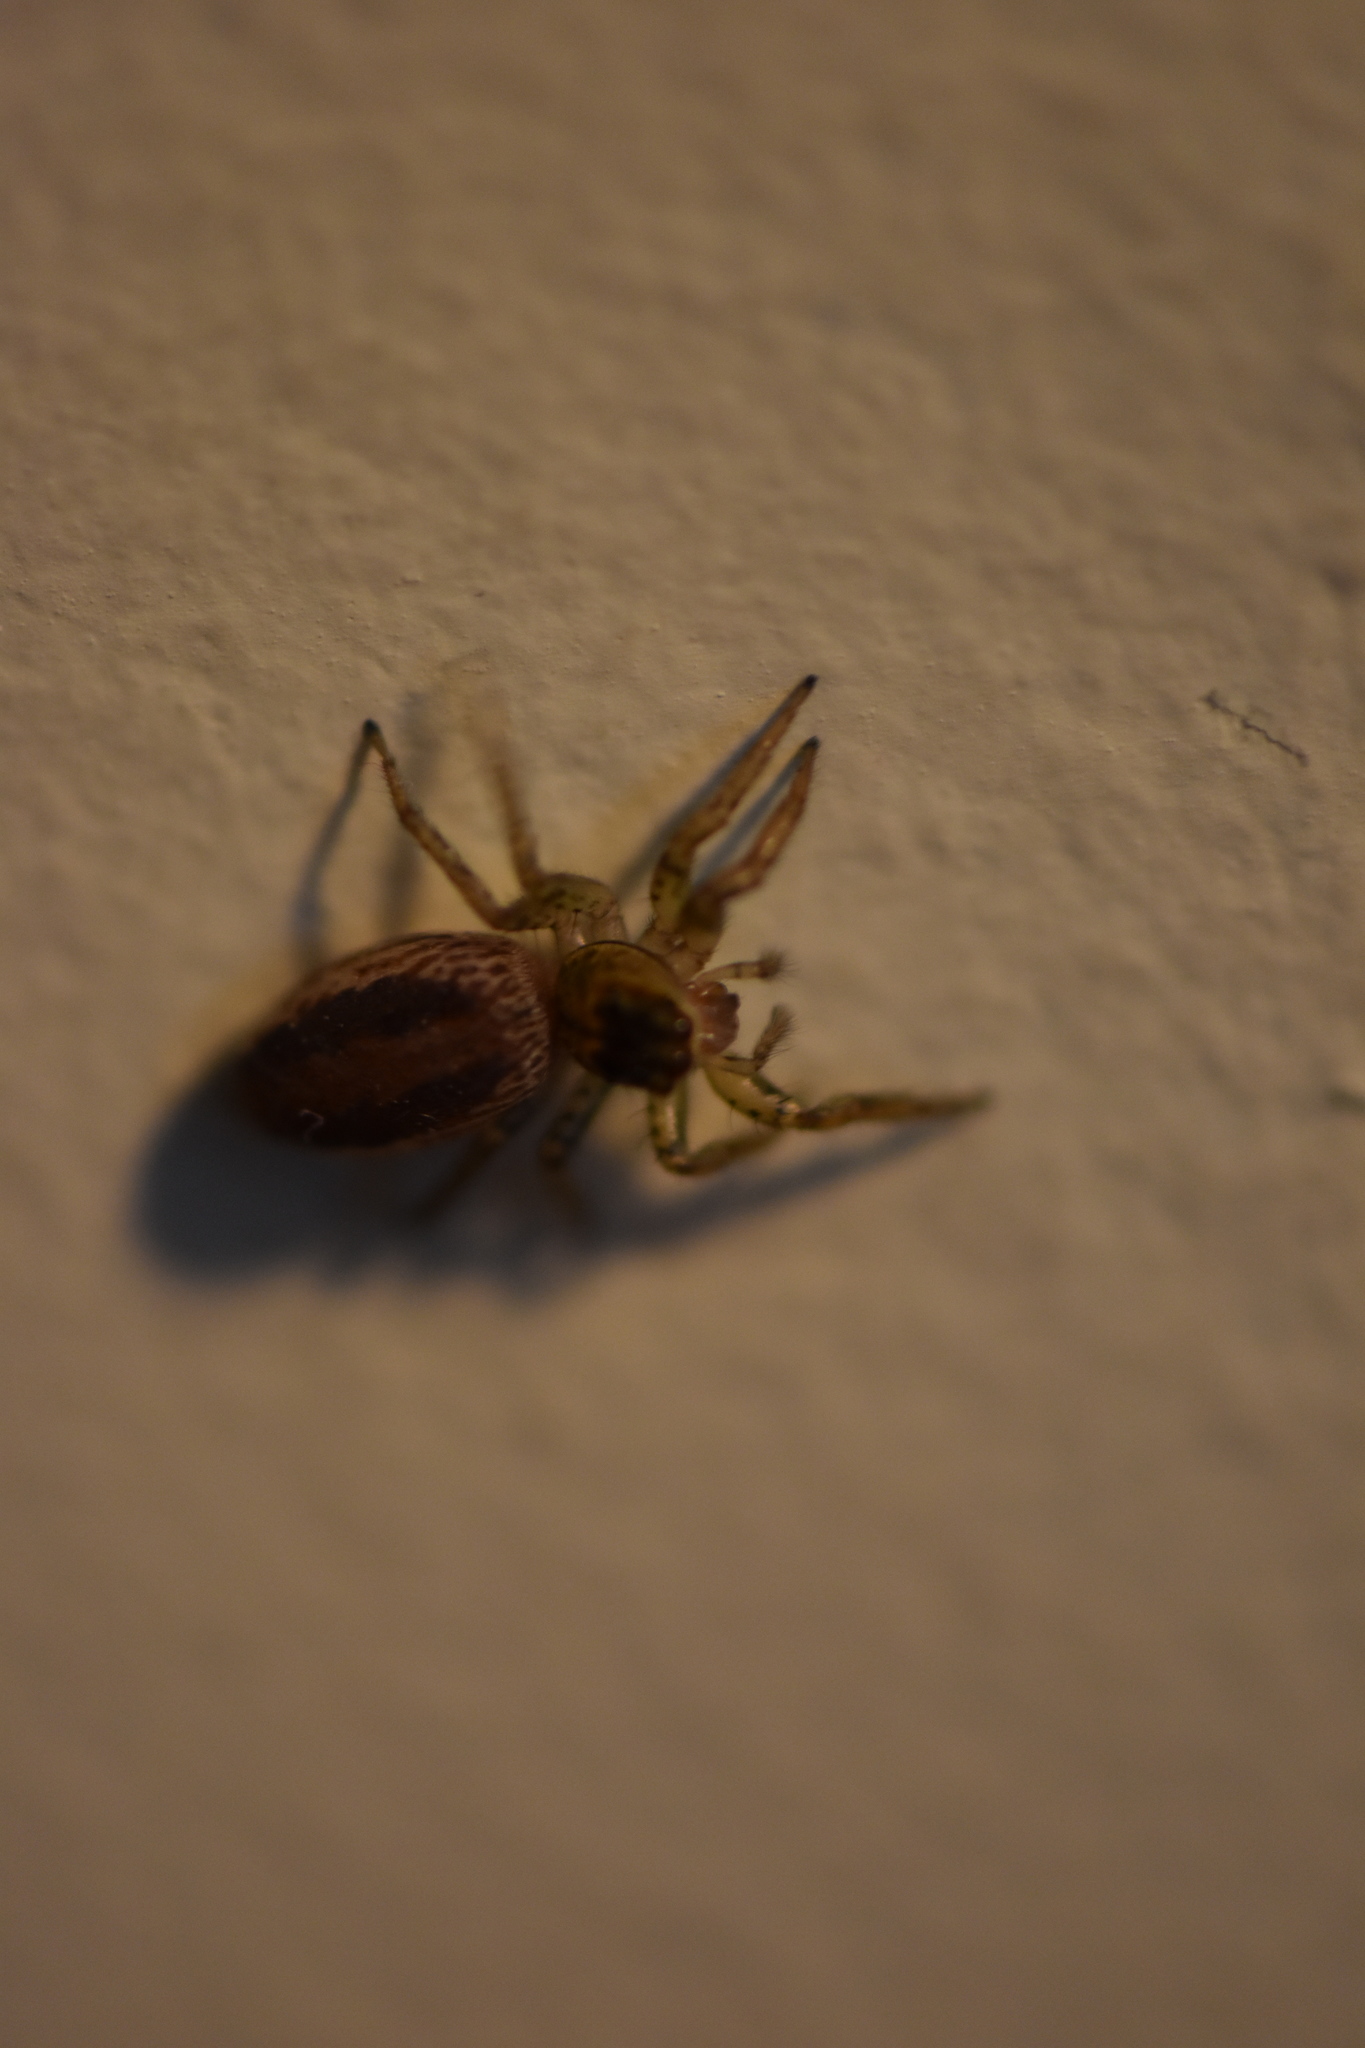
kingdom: Animalia
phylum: Arthropoda
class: Arachnida
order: Araneae
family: Salticidae
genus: Maevia
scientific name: Maevia inclemens
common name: Dimorphic jumper
